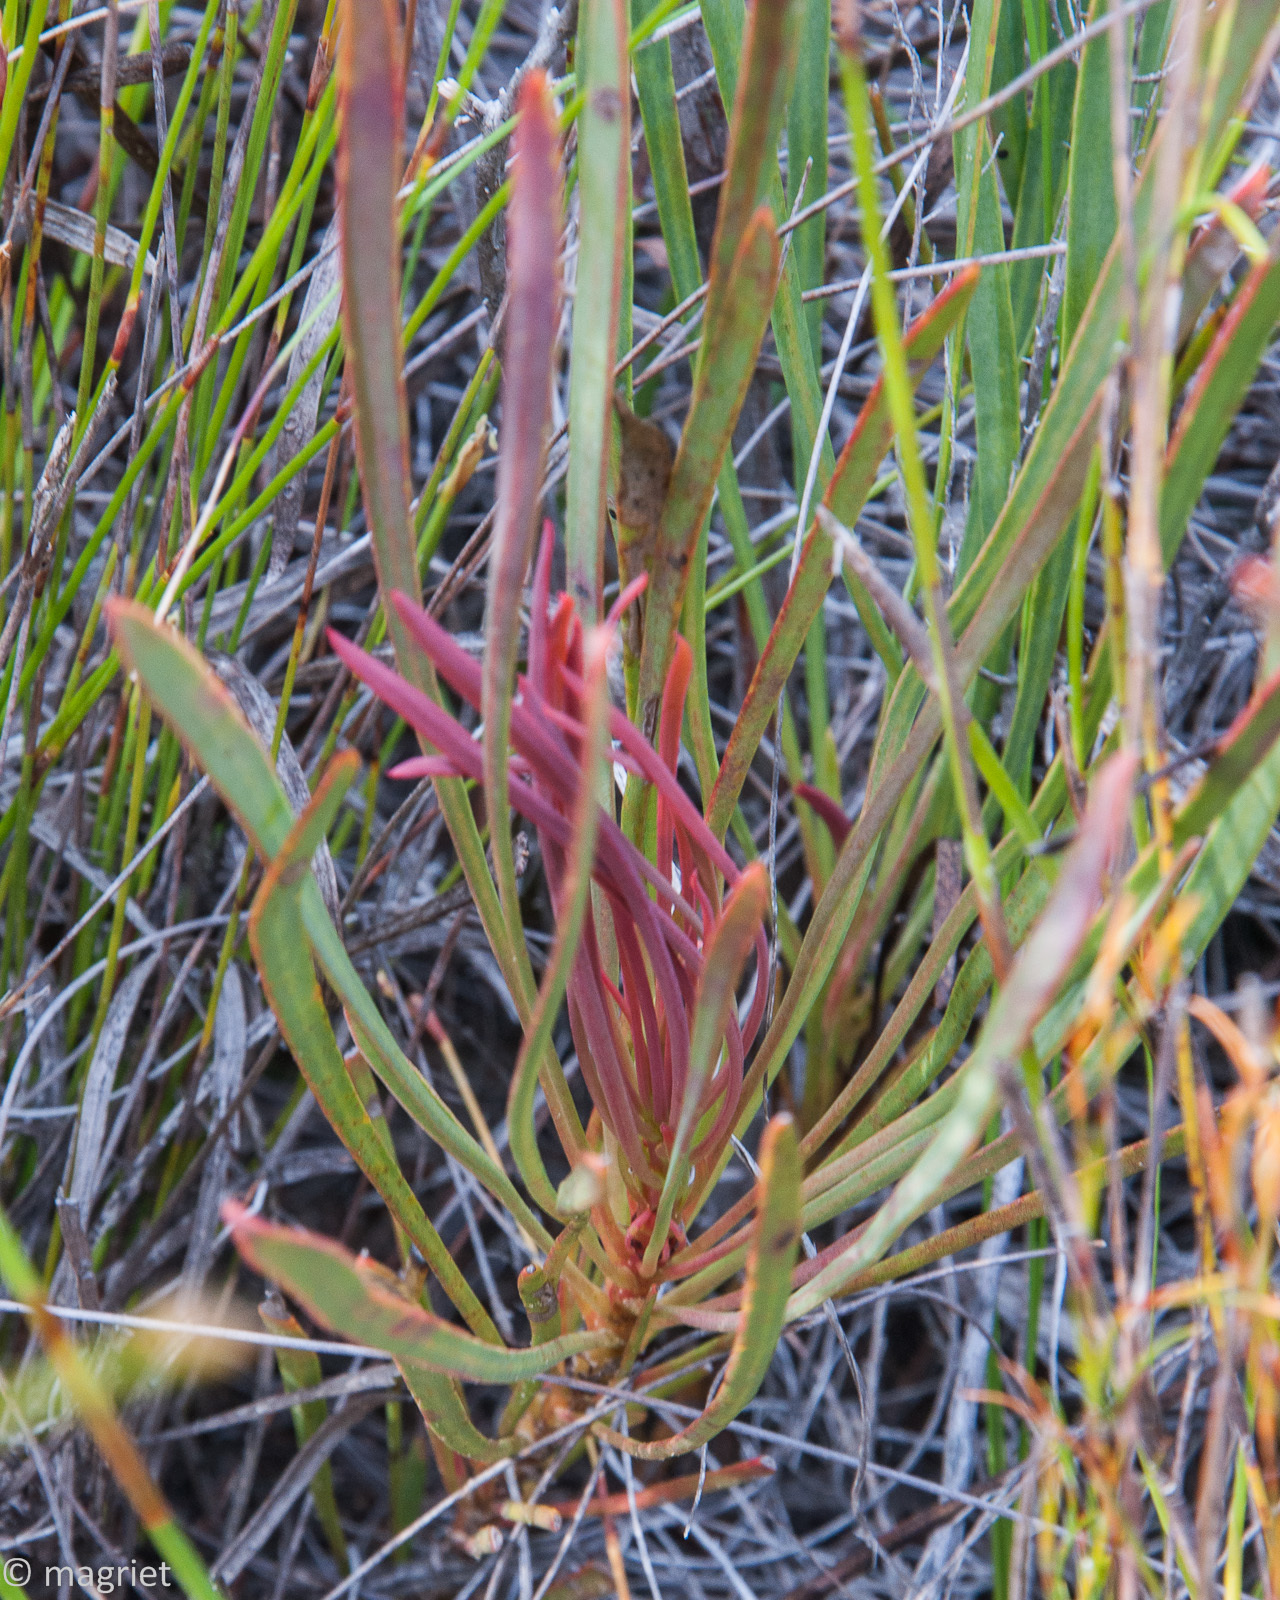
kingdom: Plantae
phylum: Tracheophyta
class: Magnoliopsida
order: Proteales
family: Proteaceae
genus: Protea
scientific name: Protea angustata
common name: Kleinmond sugarbush
